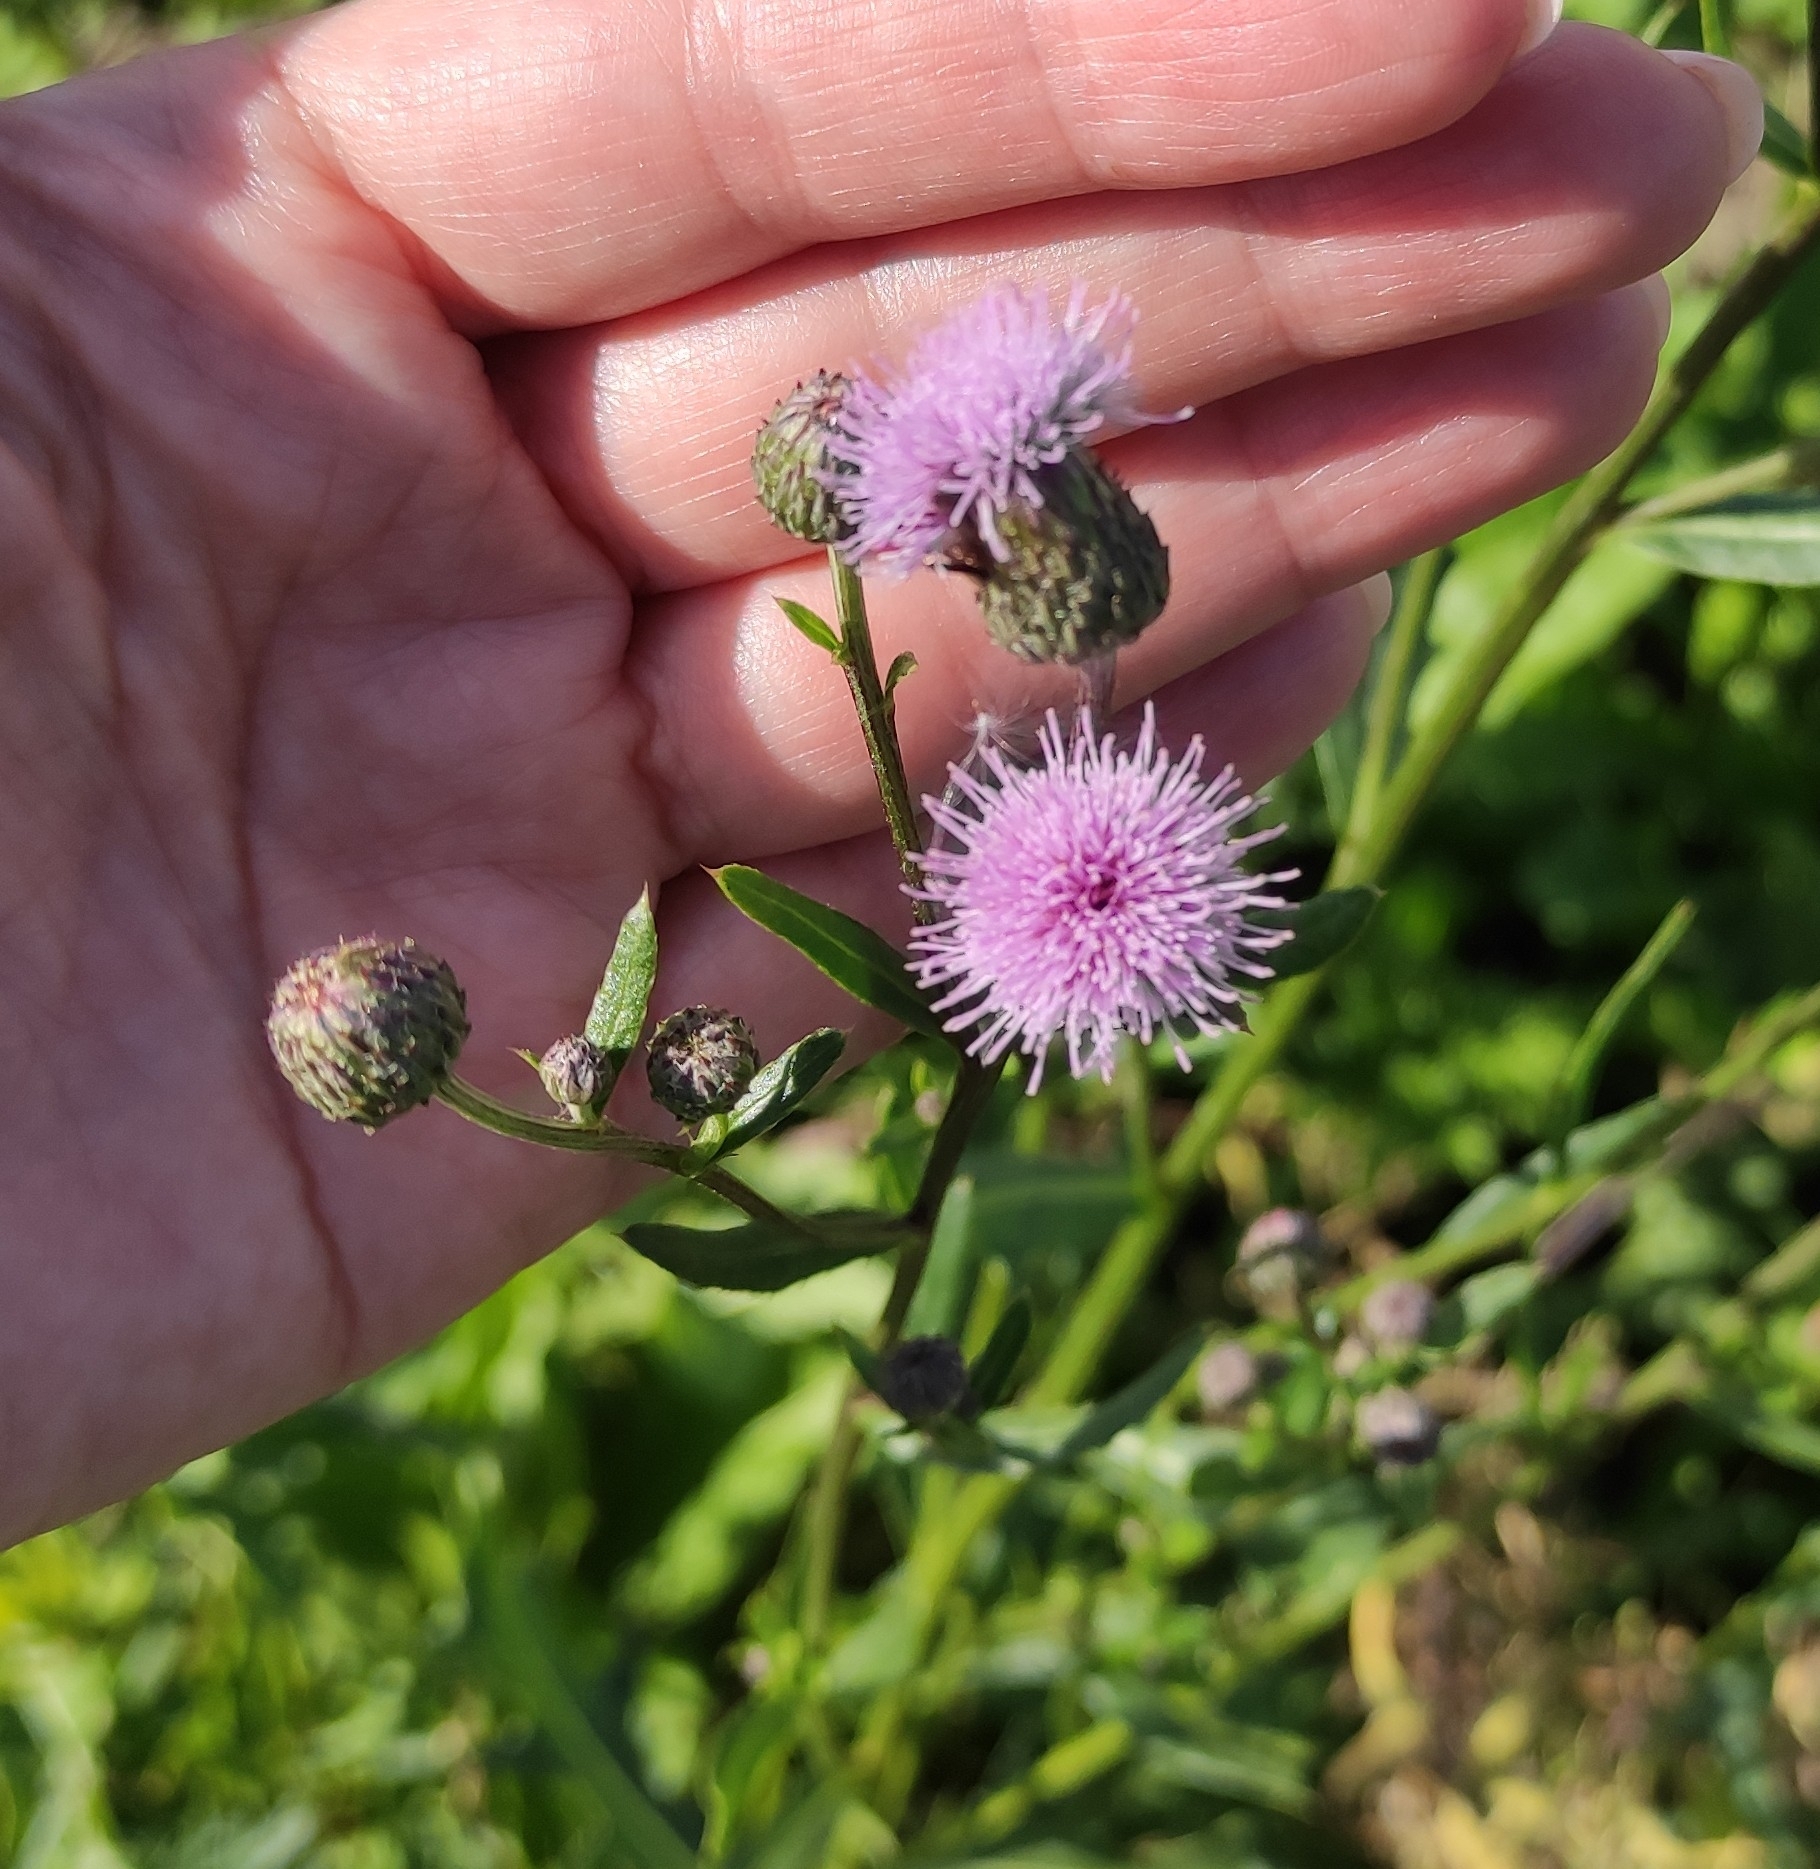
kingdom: Plantae
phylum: Tracheophyta
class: Magnoliopsida
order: Asterales
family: Asteraceae
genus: Cirsium
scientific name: Cirsium arvense
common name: Creeping thistle
